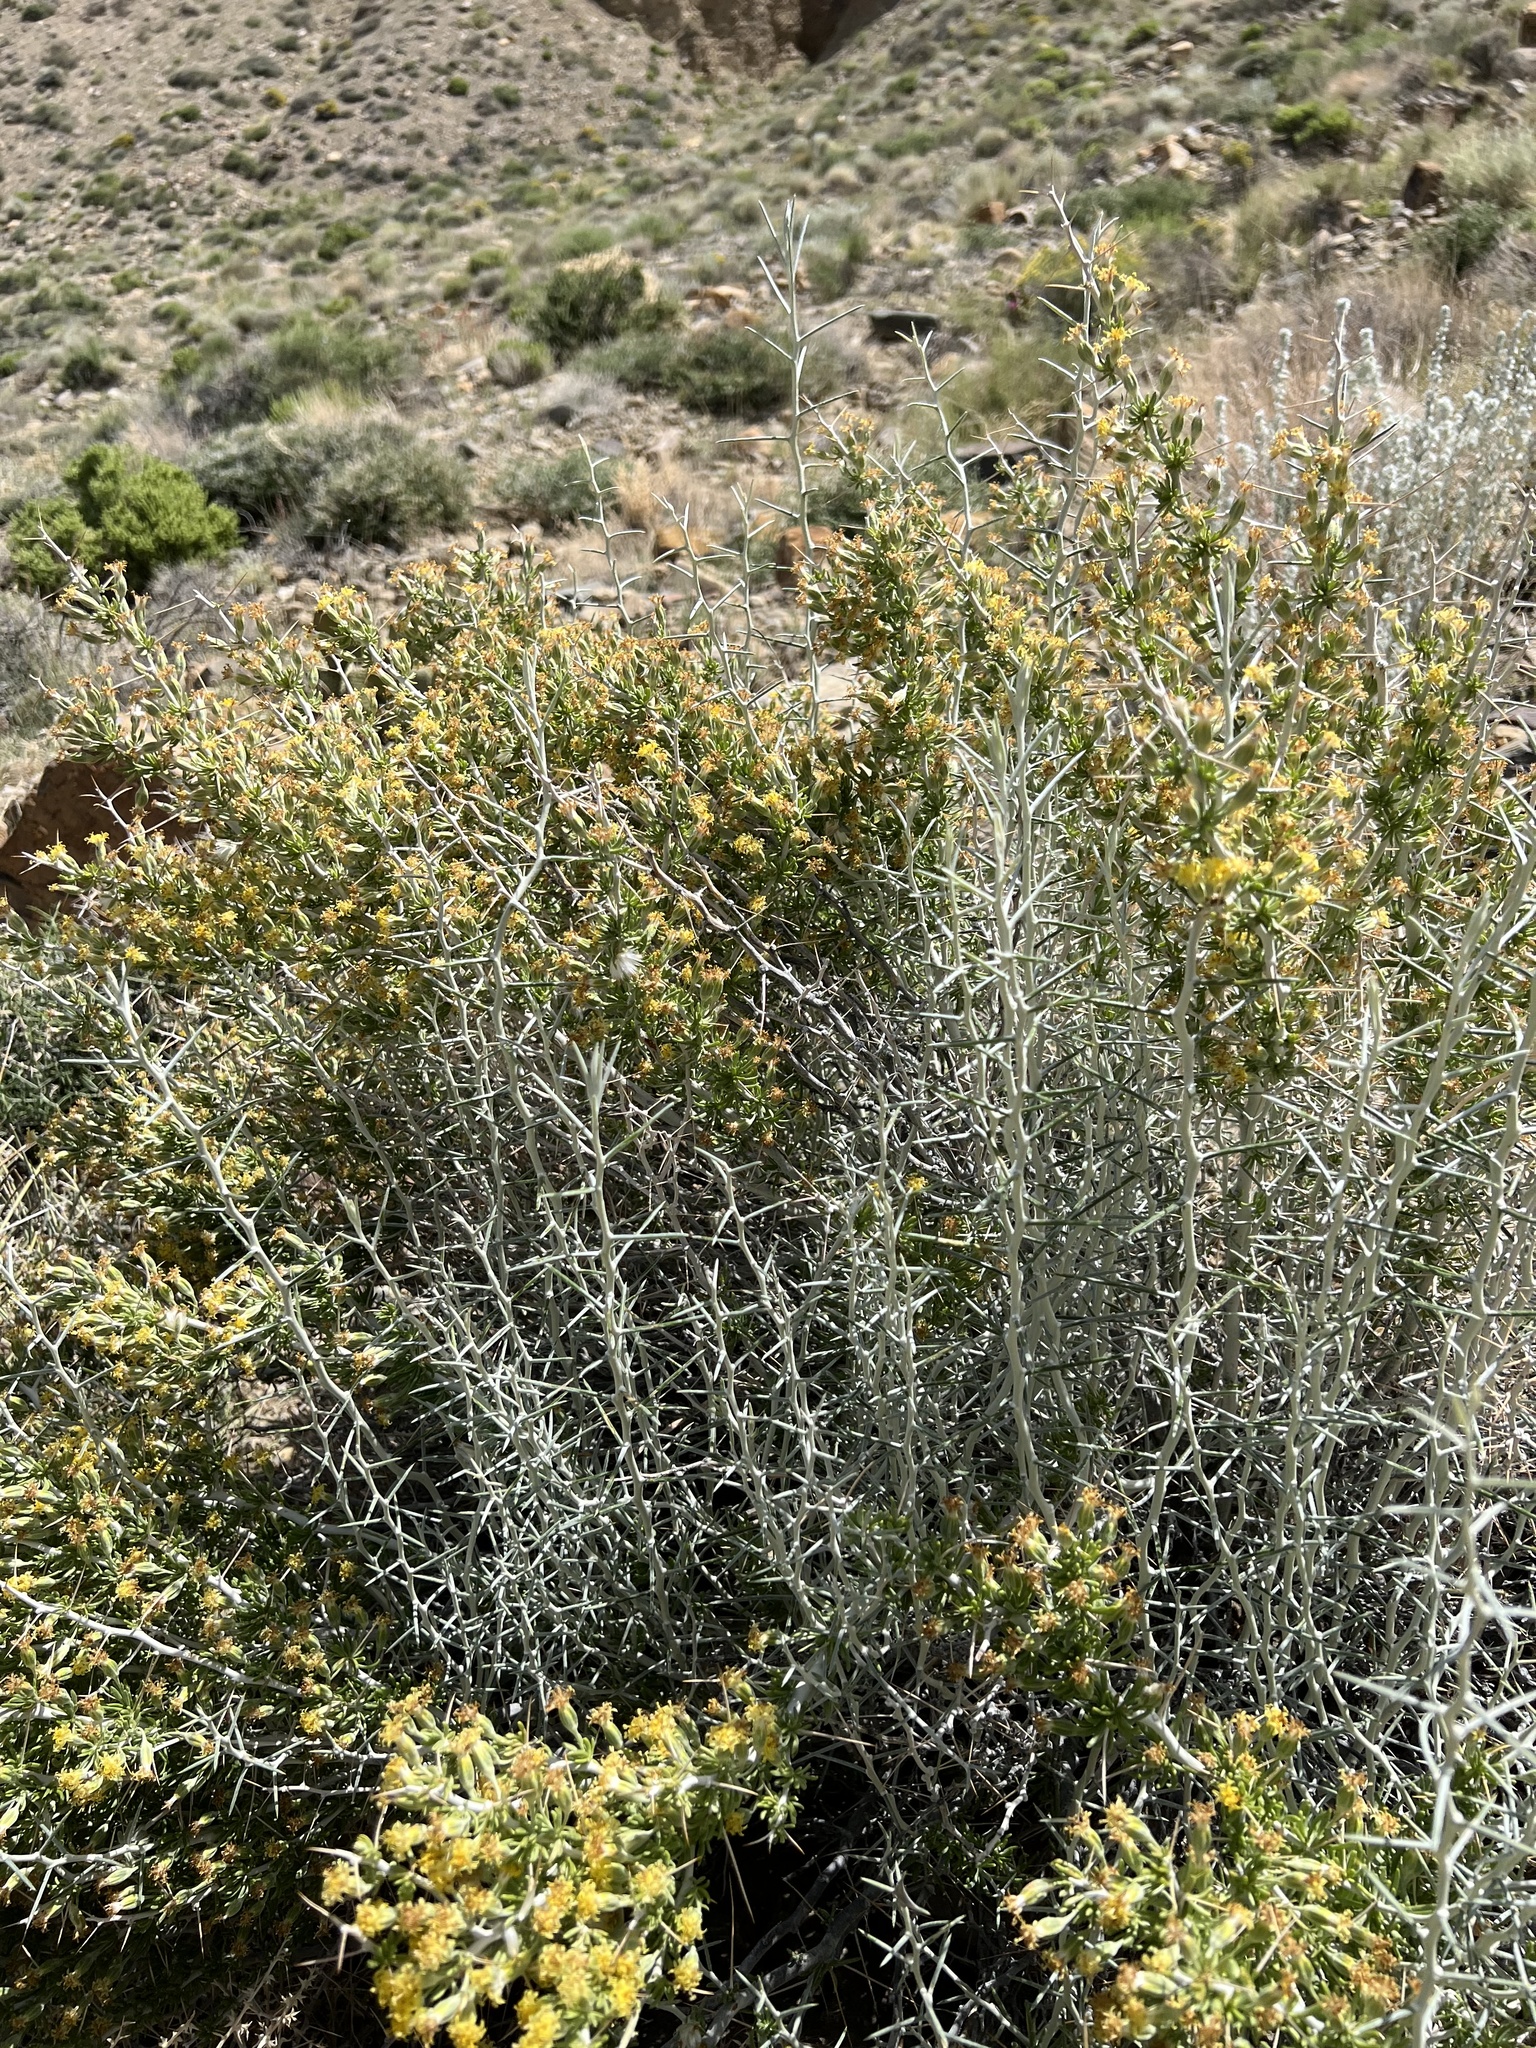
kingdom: Plantae
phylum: Tracheophyta
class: Magnoliopsida
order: Asterales
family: Asteraceae
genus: Tetradymia
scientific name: Tetradymia axillaris
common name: Long-spine horsebrush
